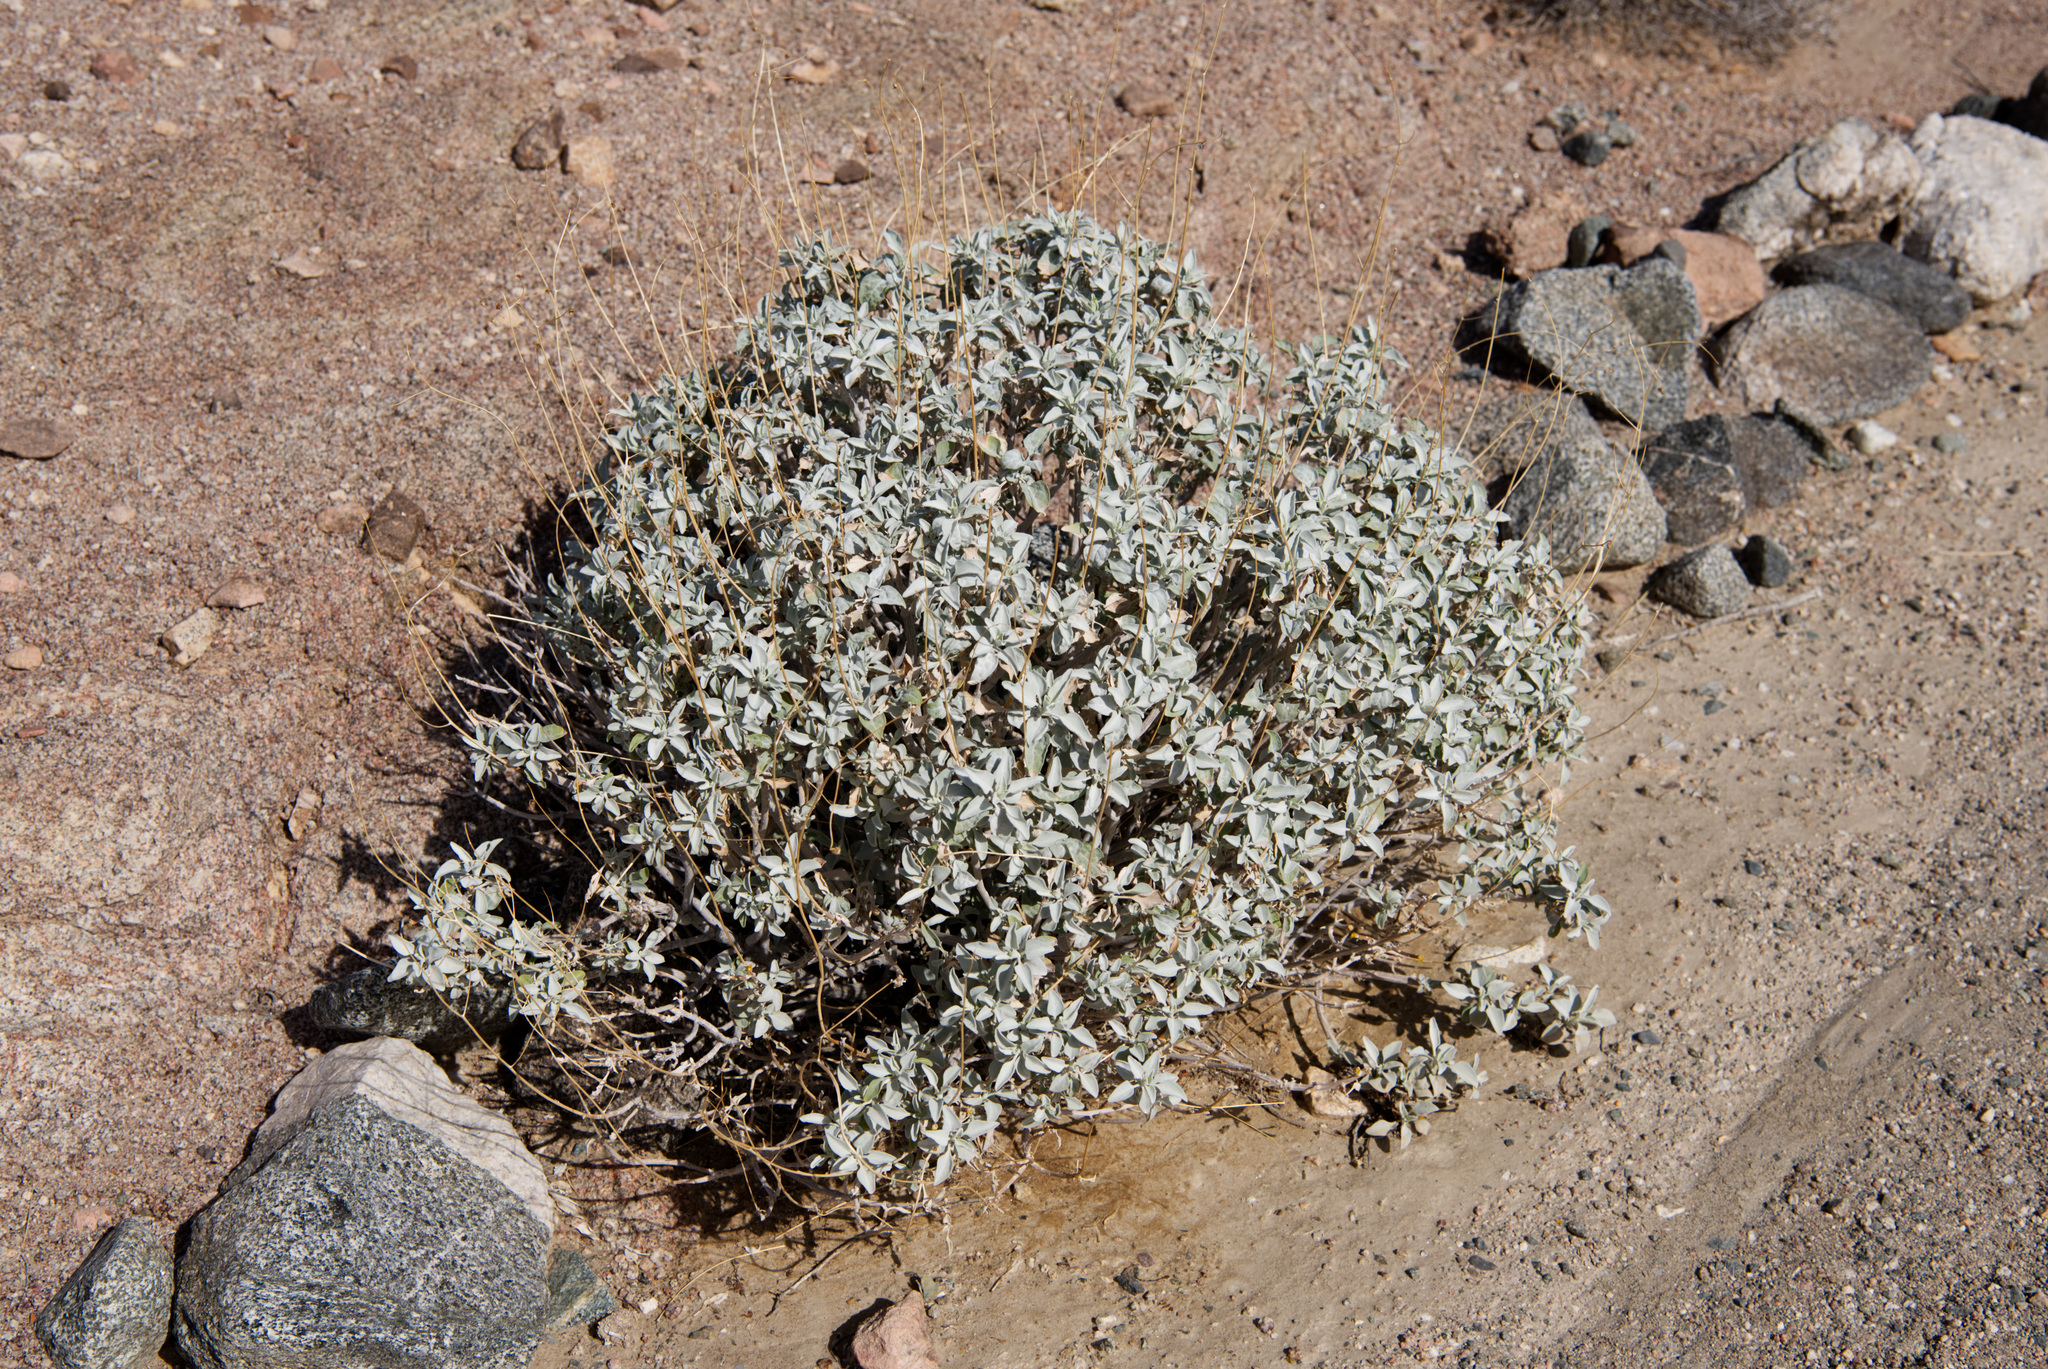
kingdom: Plantae
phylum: Tracheophyta
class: Magnoliopsida
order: Asterales
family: Asteraceae
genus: Encelia
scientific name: Encelia farinosa
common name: Brittlebush
